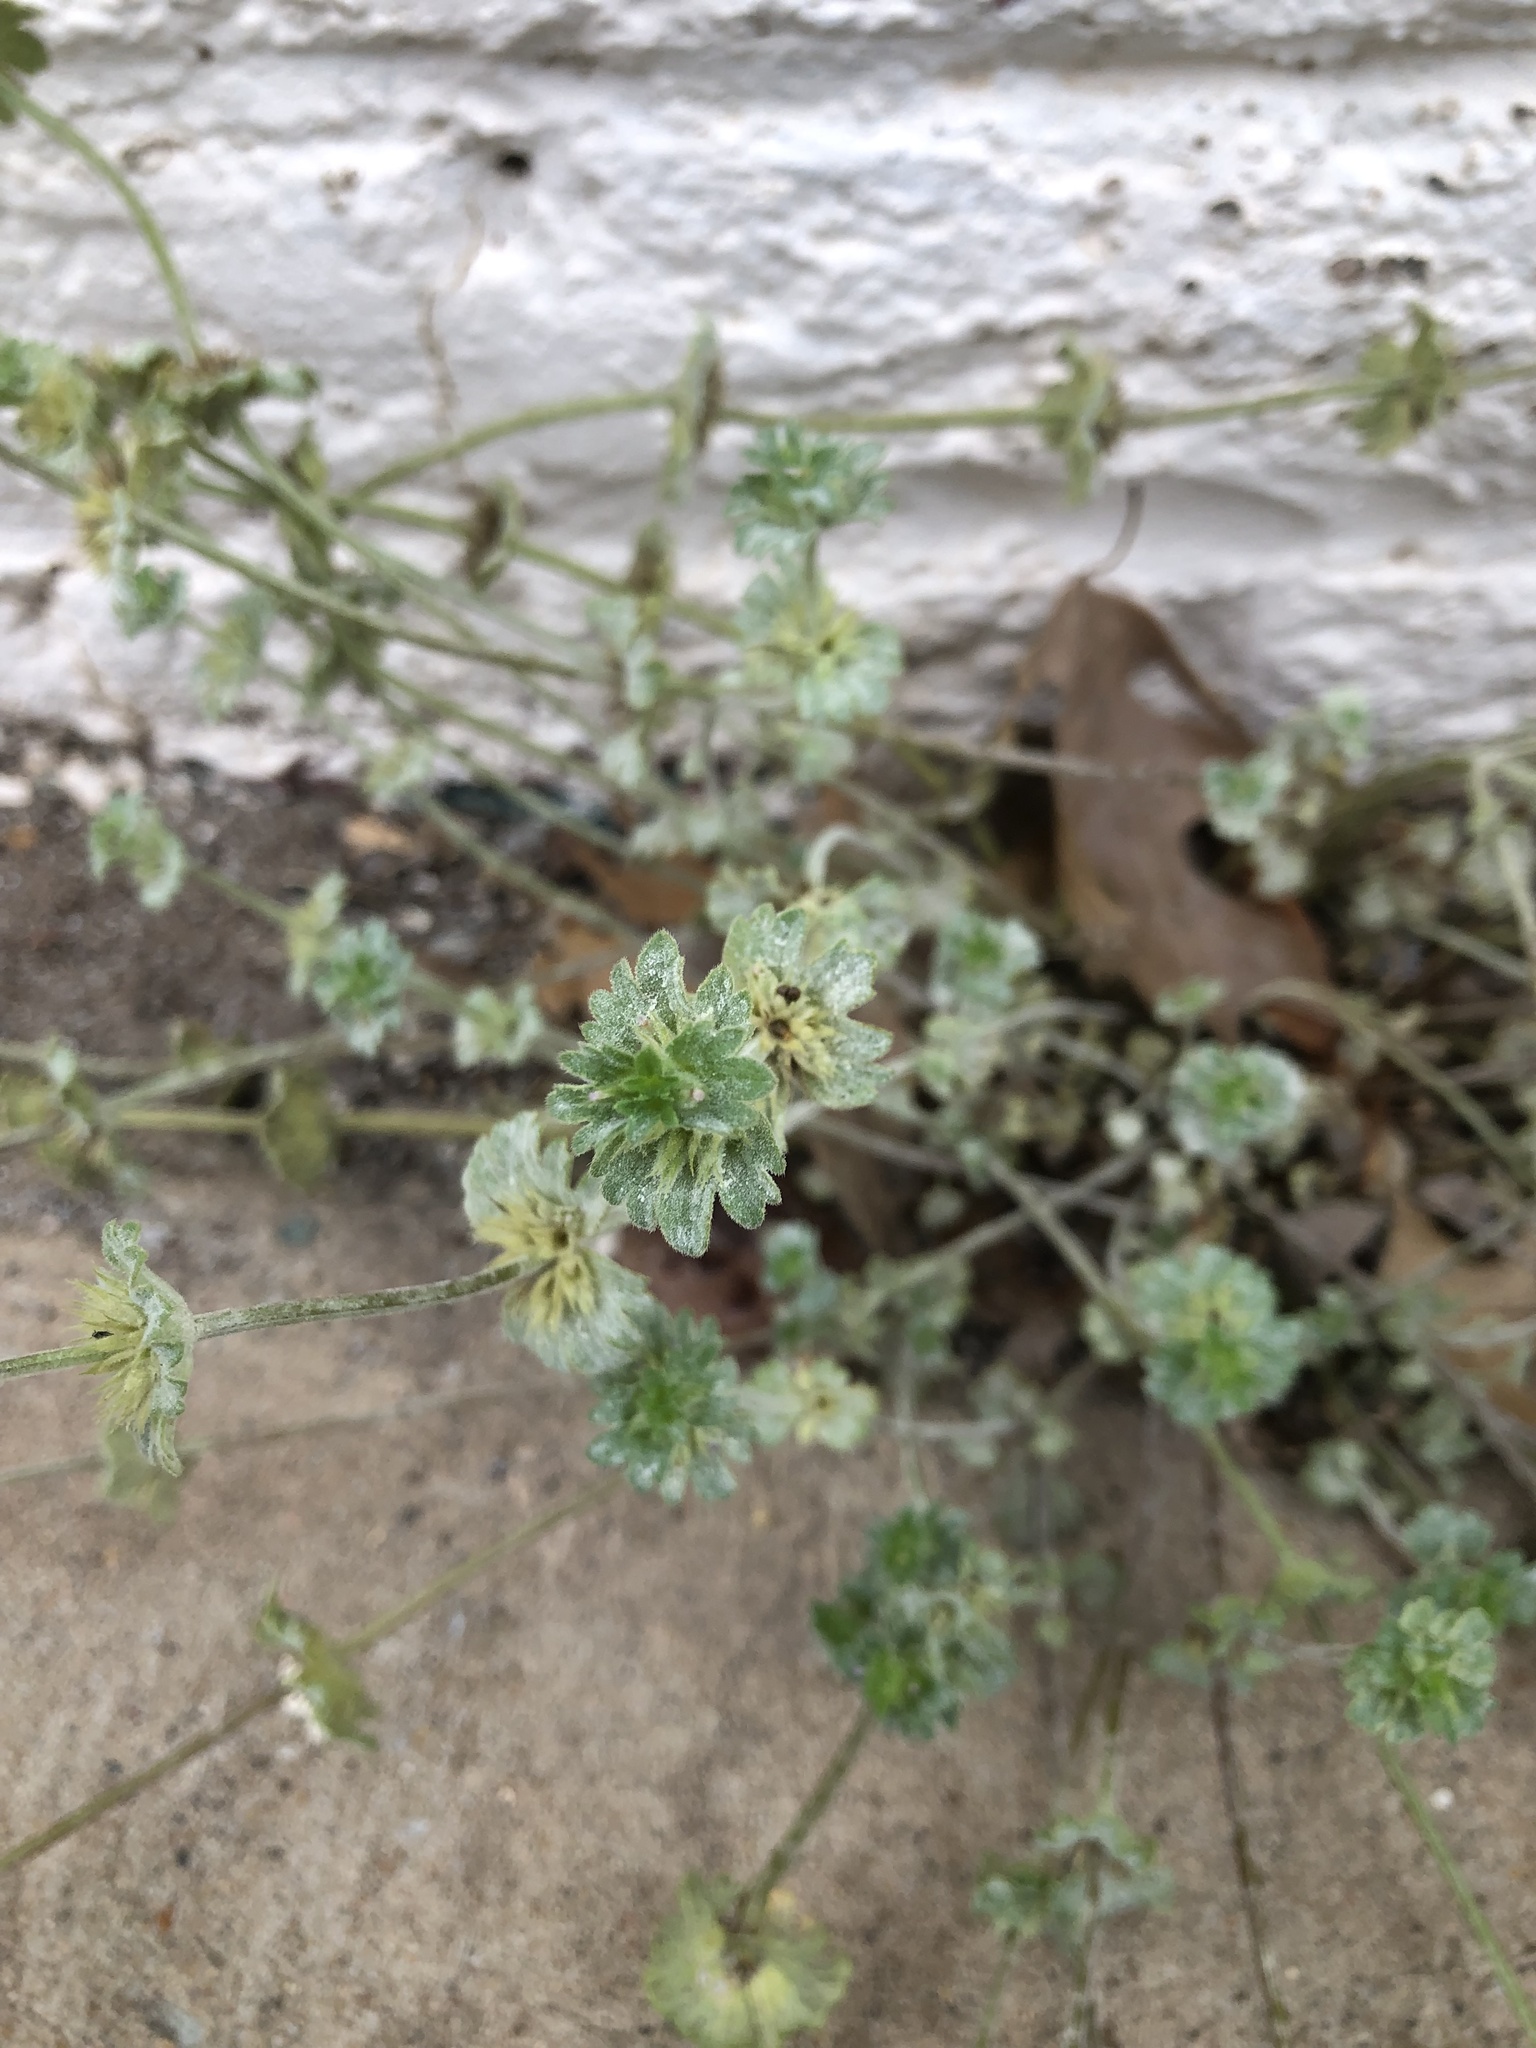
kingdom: Plantae
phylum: Tracheophyta
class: Magnoliopsida
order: Lamiales
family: Lamiaceae
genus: Lamium
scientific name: Lamium amplexicaule
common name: Henbit dead-nettle
